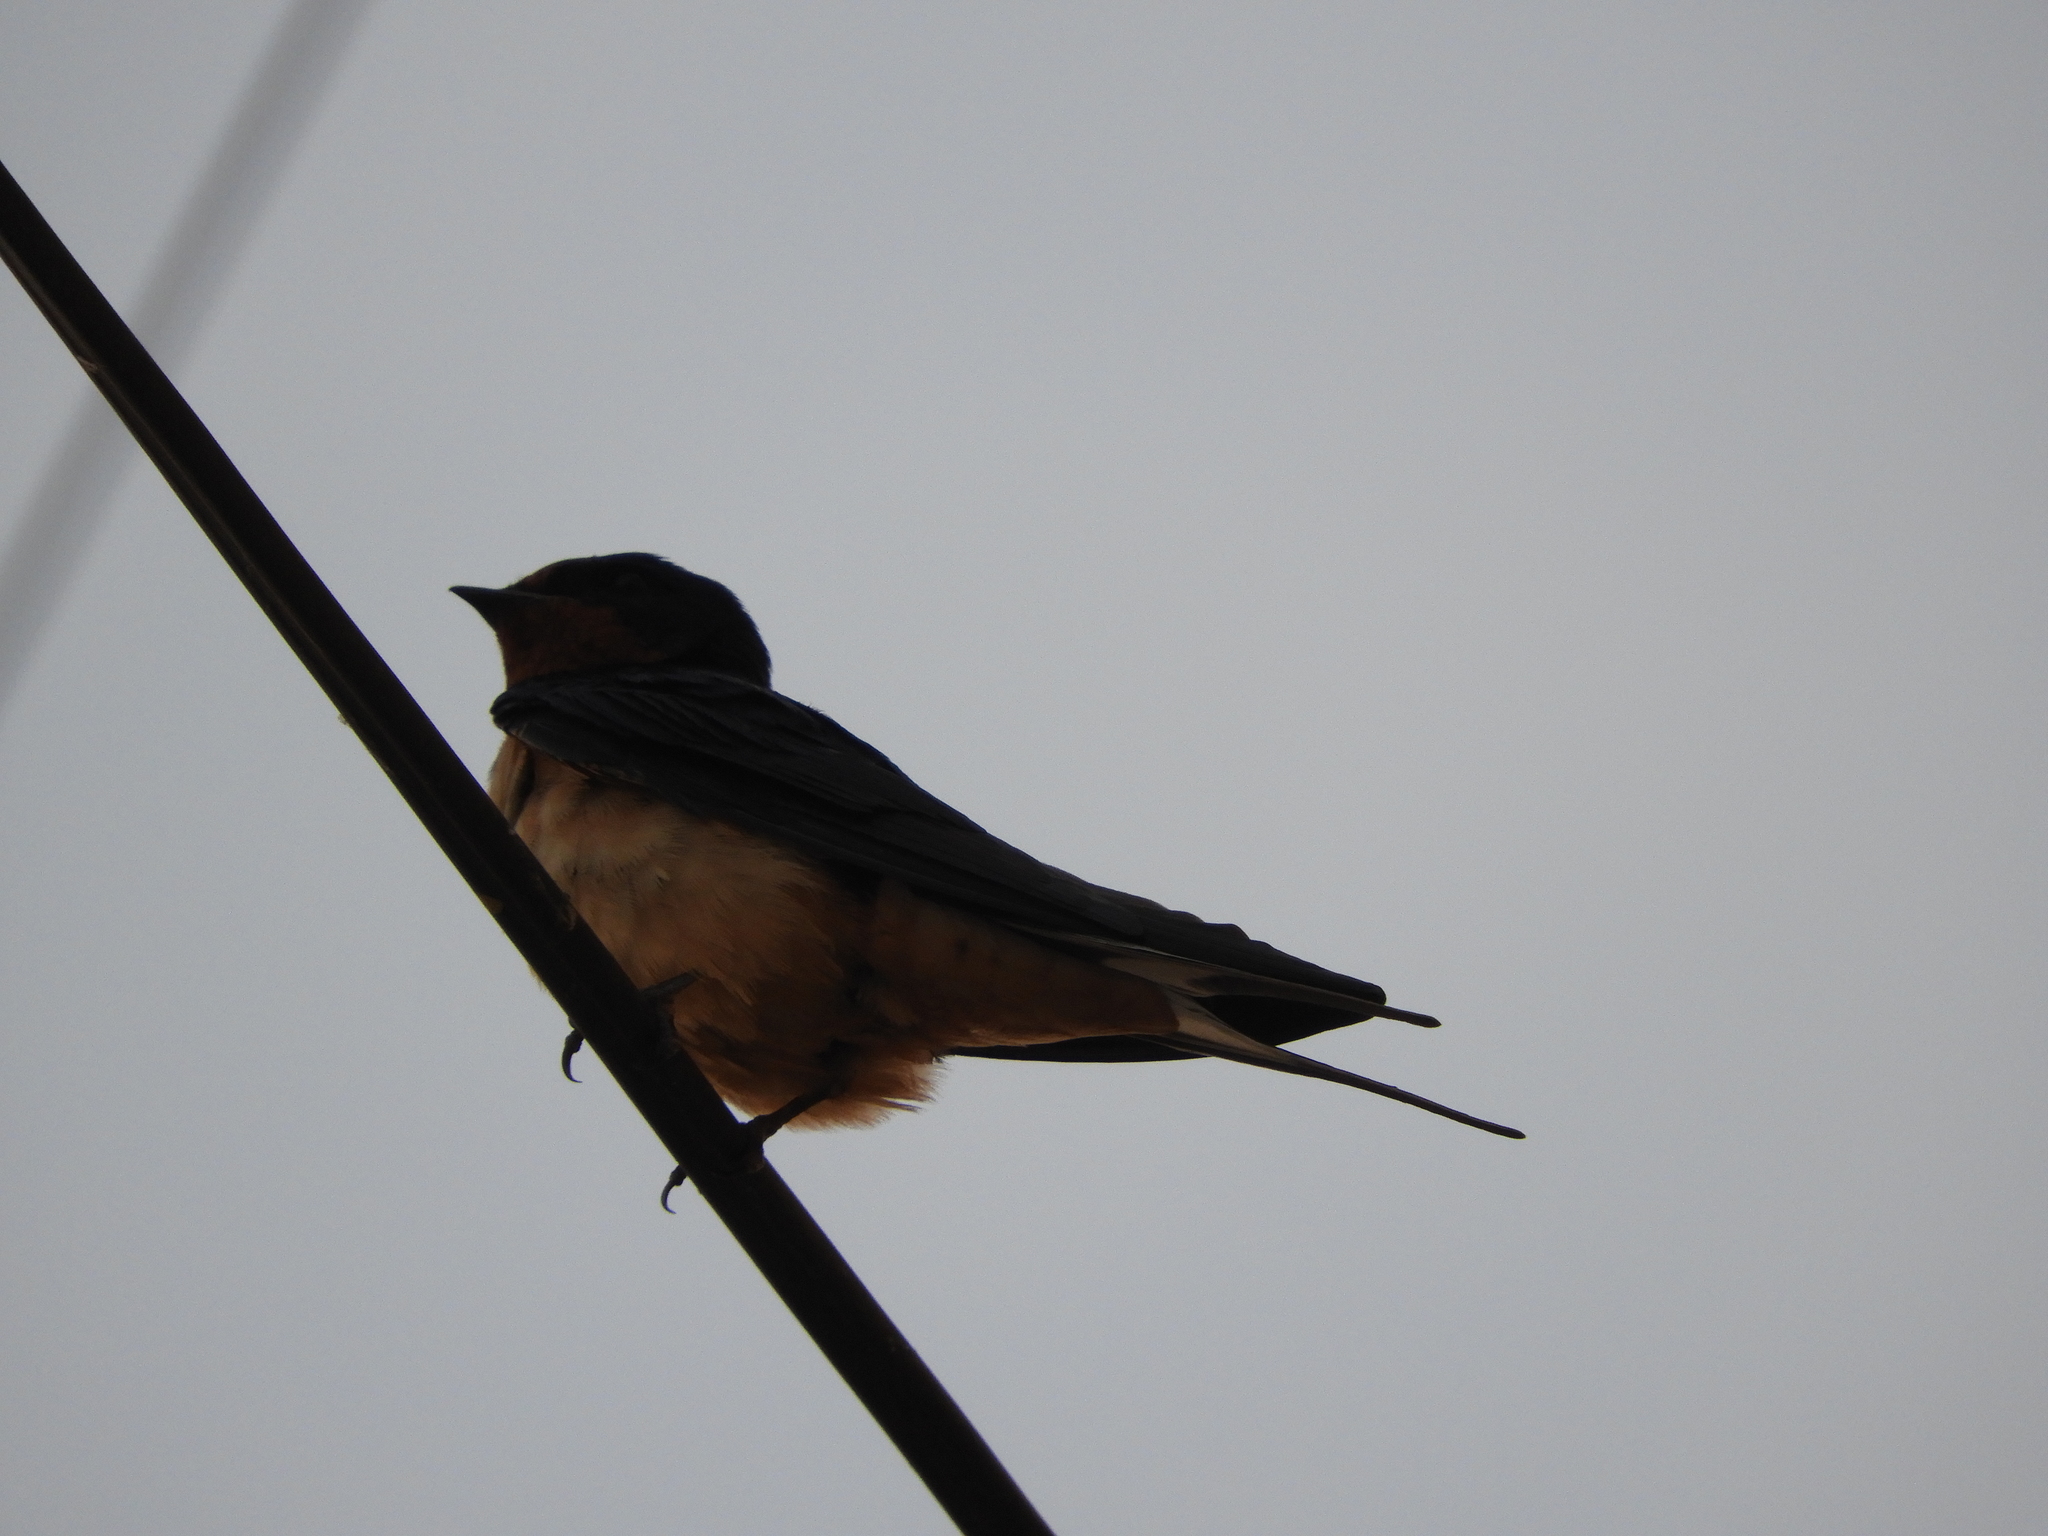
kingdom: Animalia
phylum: Chordata
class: Aves
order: Passeriformes
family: Hirundinidae
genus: Hirundo
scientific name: Hirundo rustica
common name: Barn swallow
